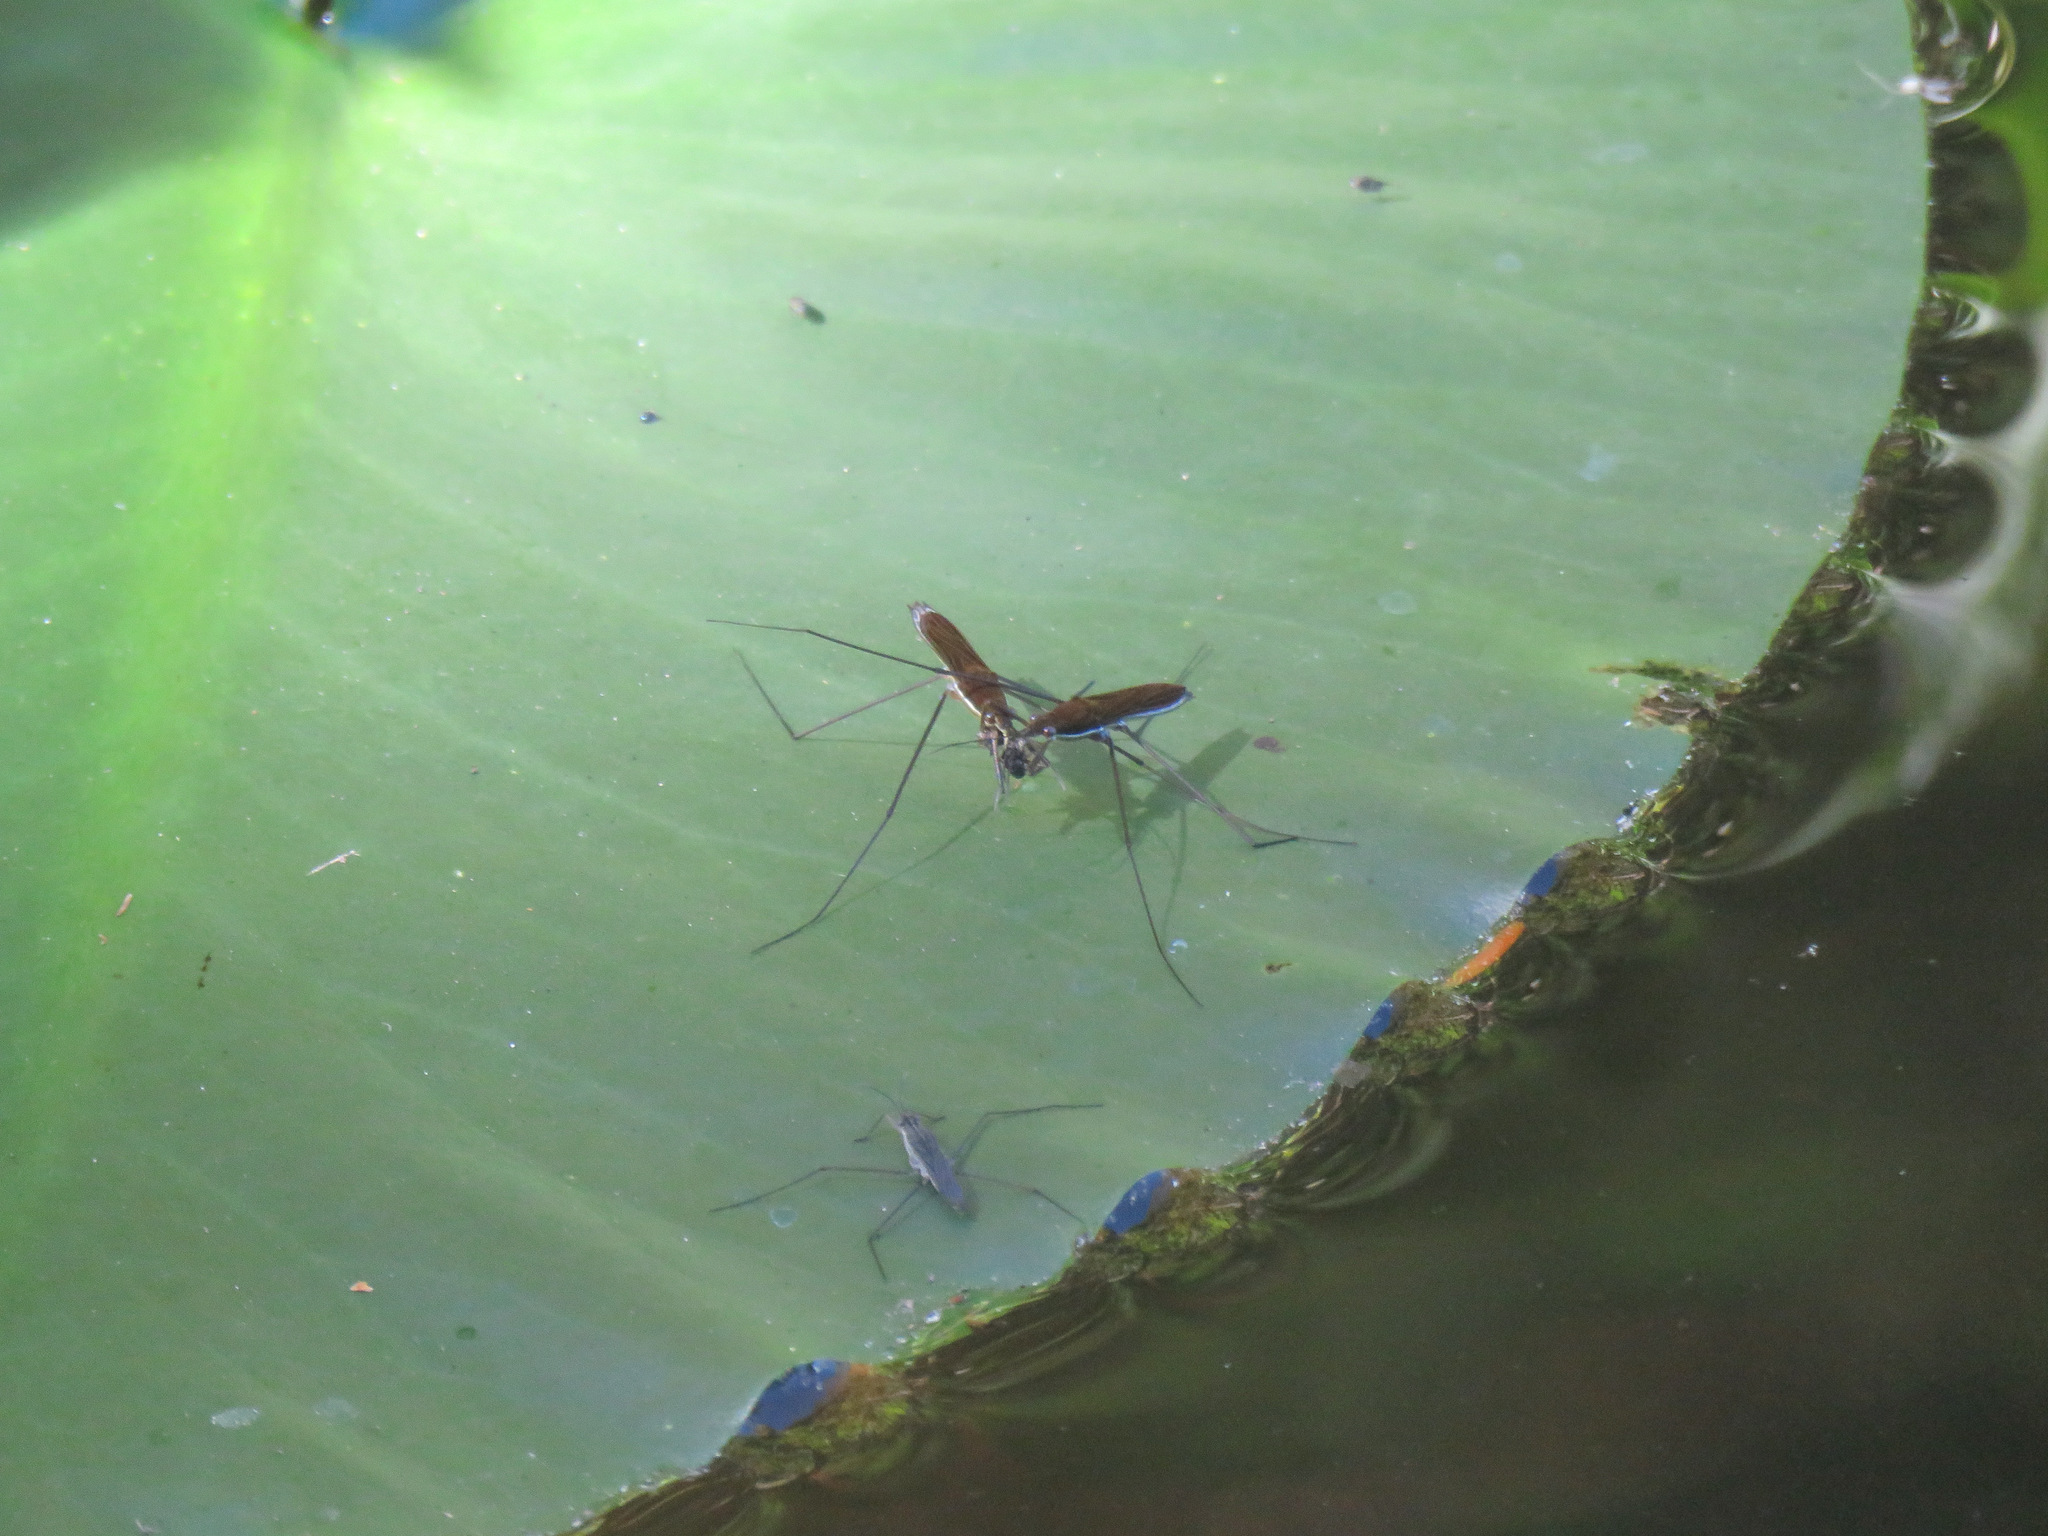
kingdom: Animalia
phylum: Arthropoda
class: Insecta
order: Hemiptera
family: Gerridae
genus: Limnoporus
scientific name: Limnoporus
